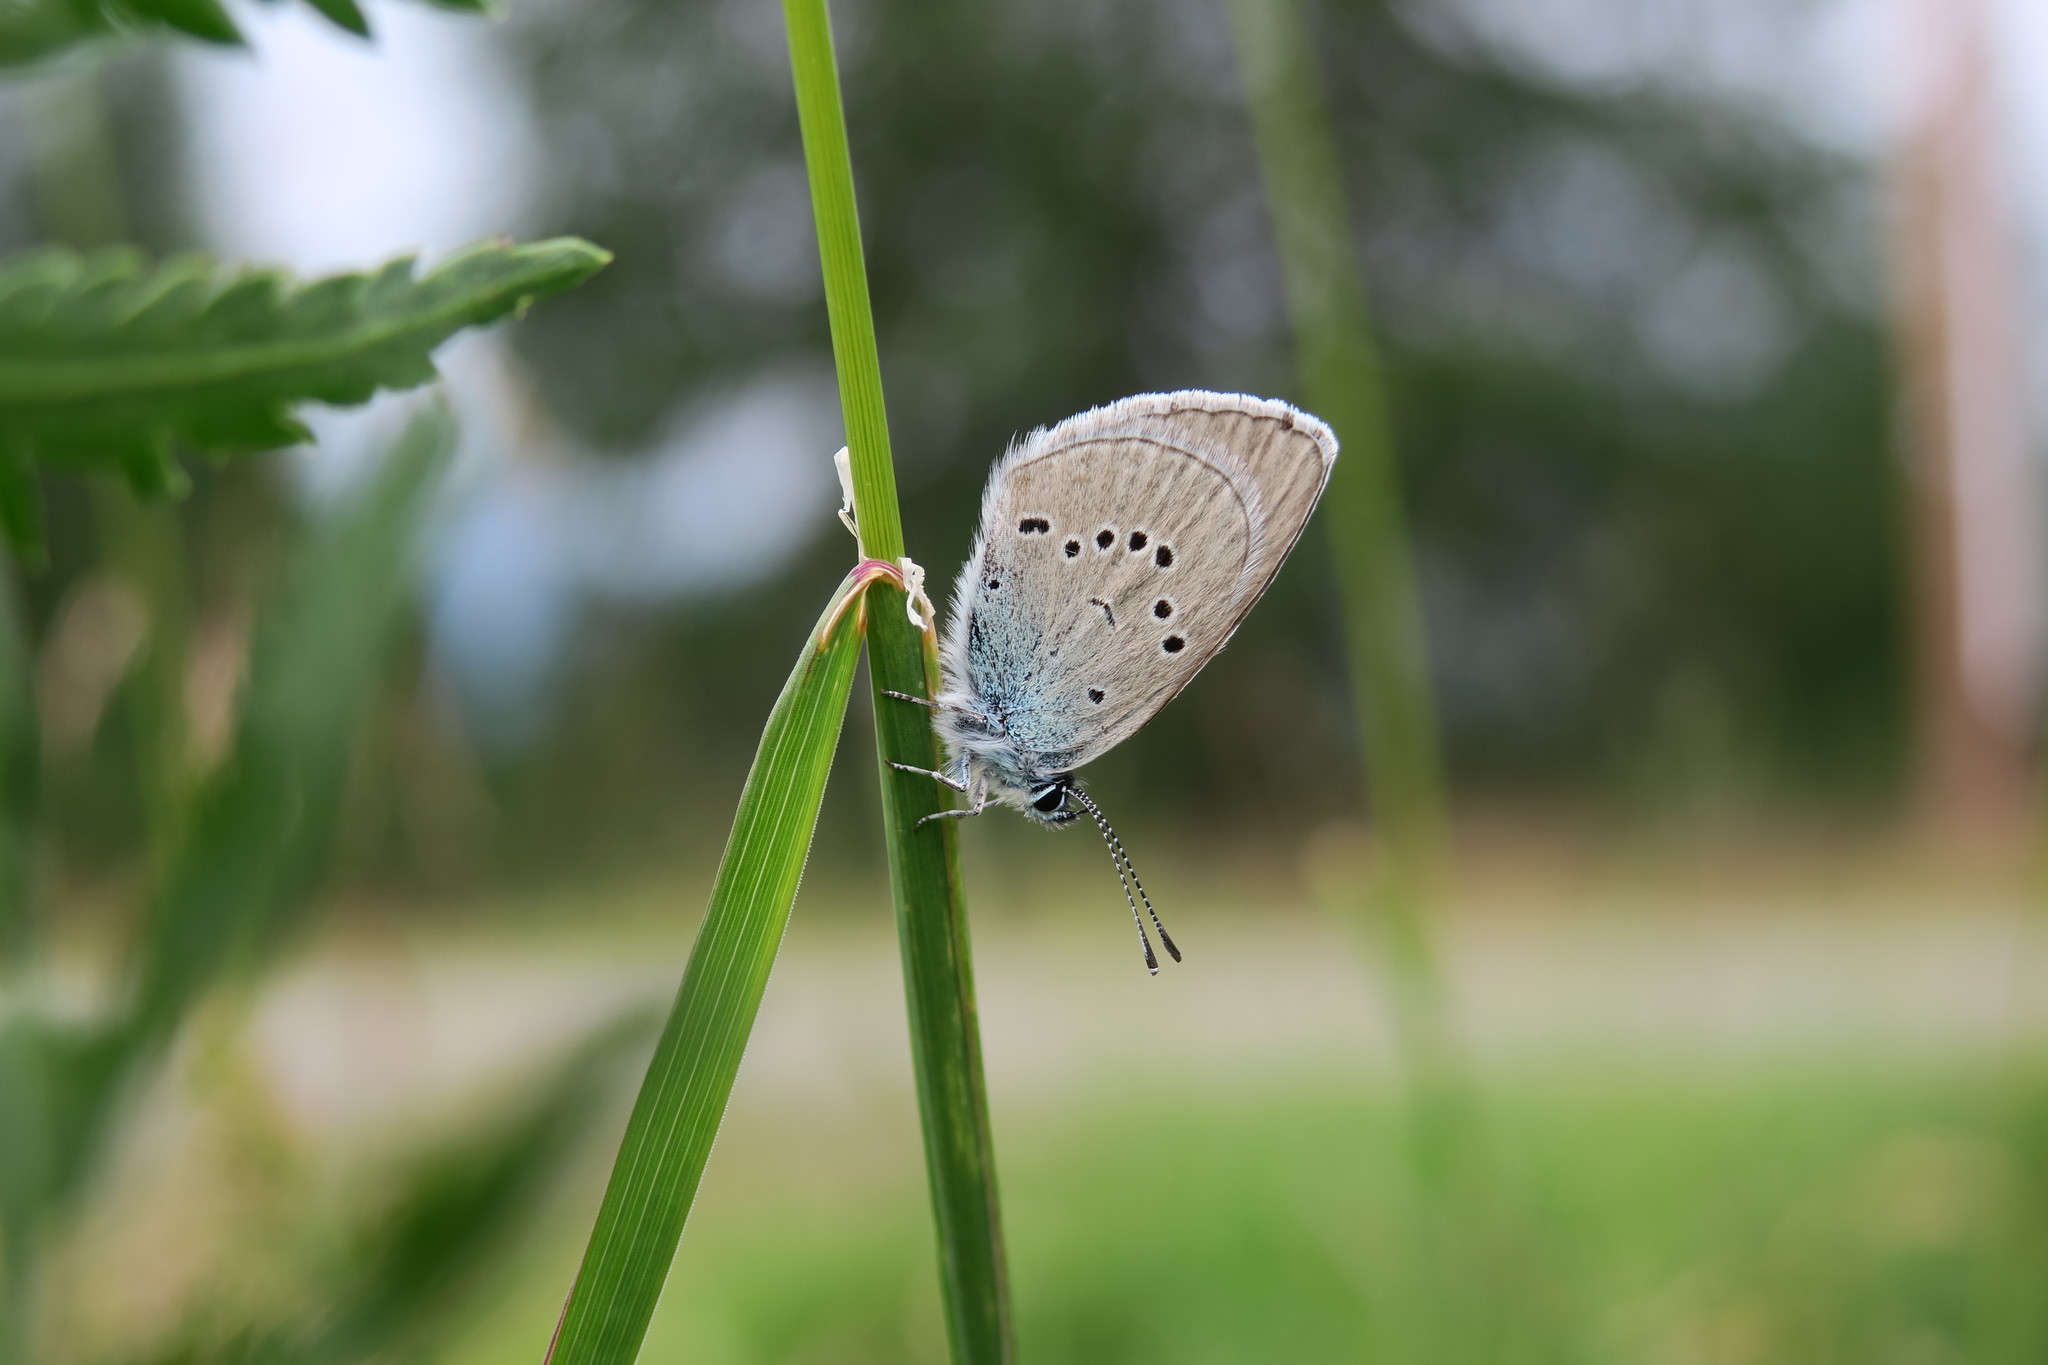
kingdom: Animalia
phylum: Arthropoda
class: Insecta
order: Lepidoptera
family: Lycaenidae
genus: Cyaniris
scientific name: Cyaniris semiargus
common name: Mazarine blue
